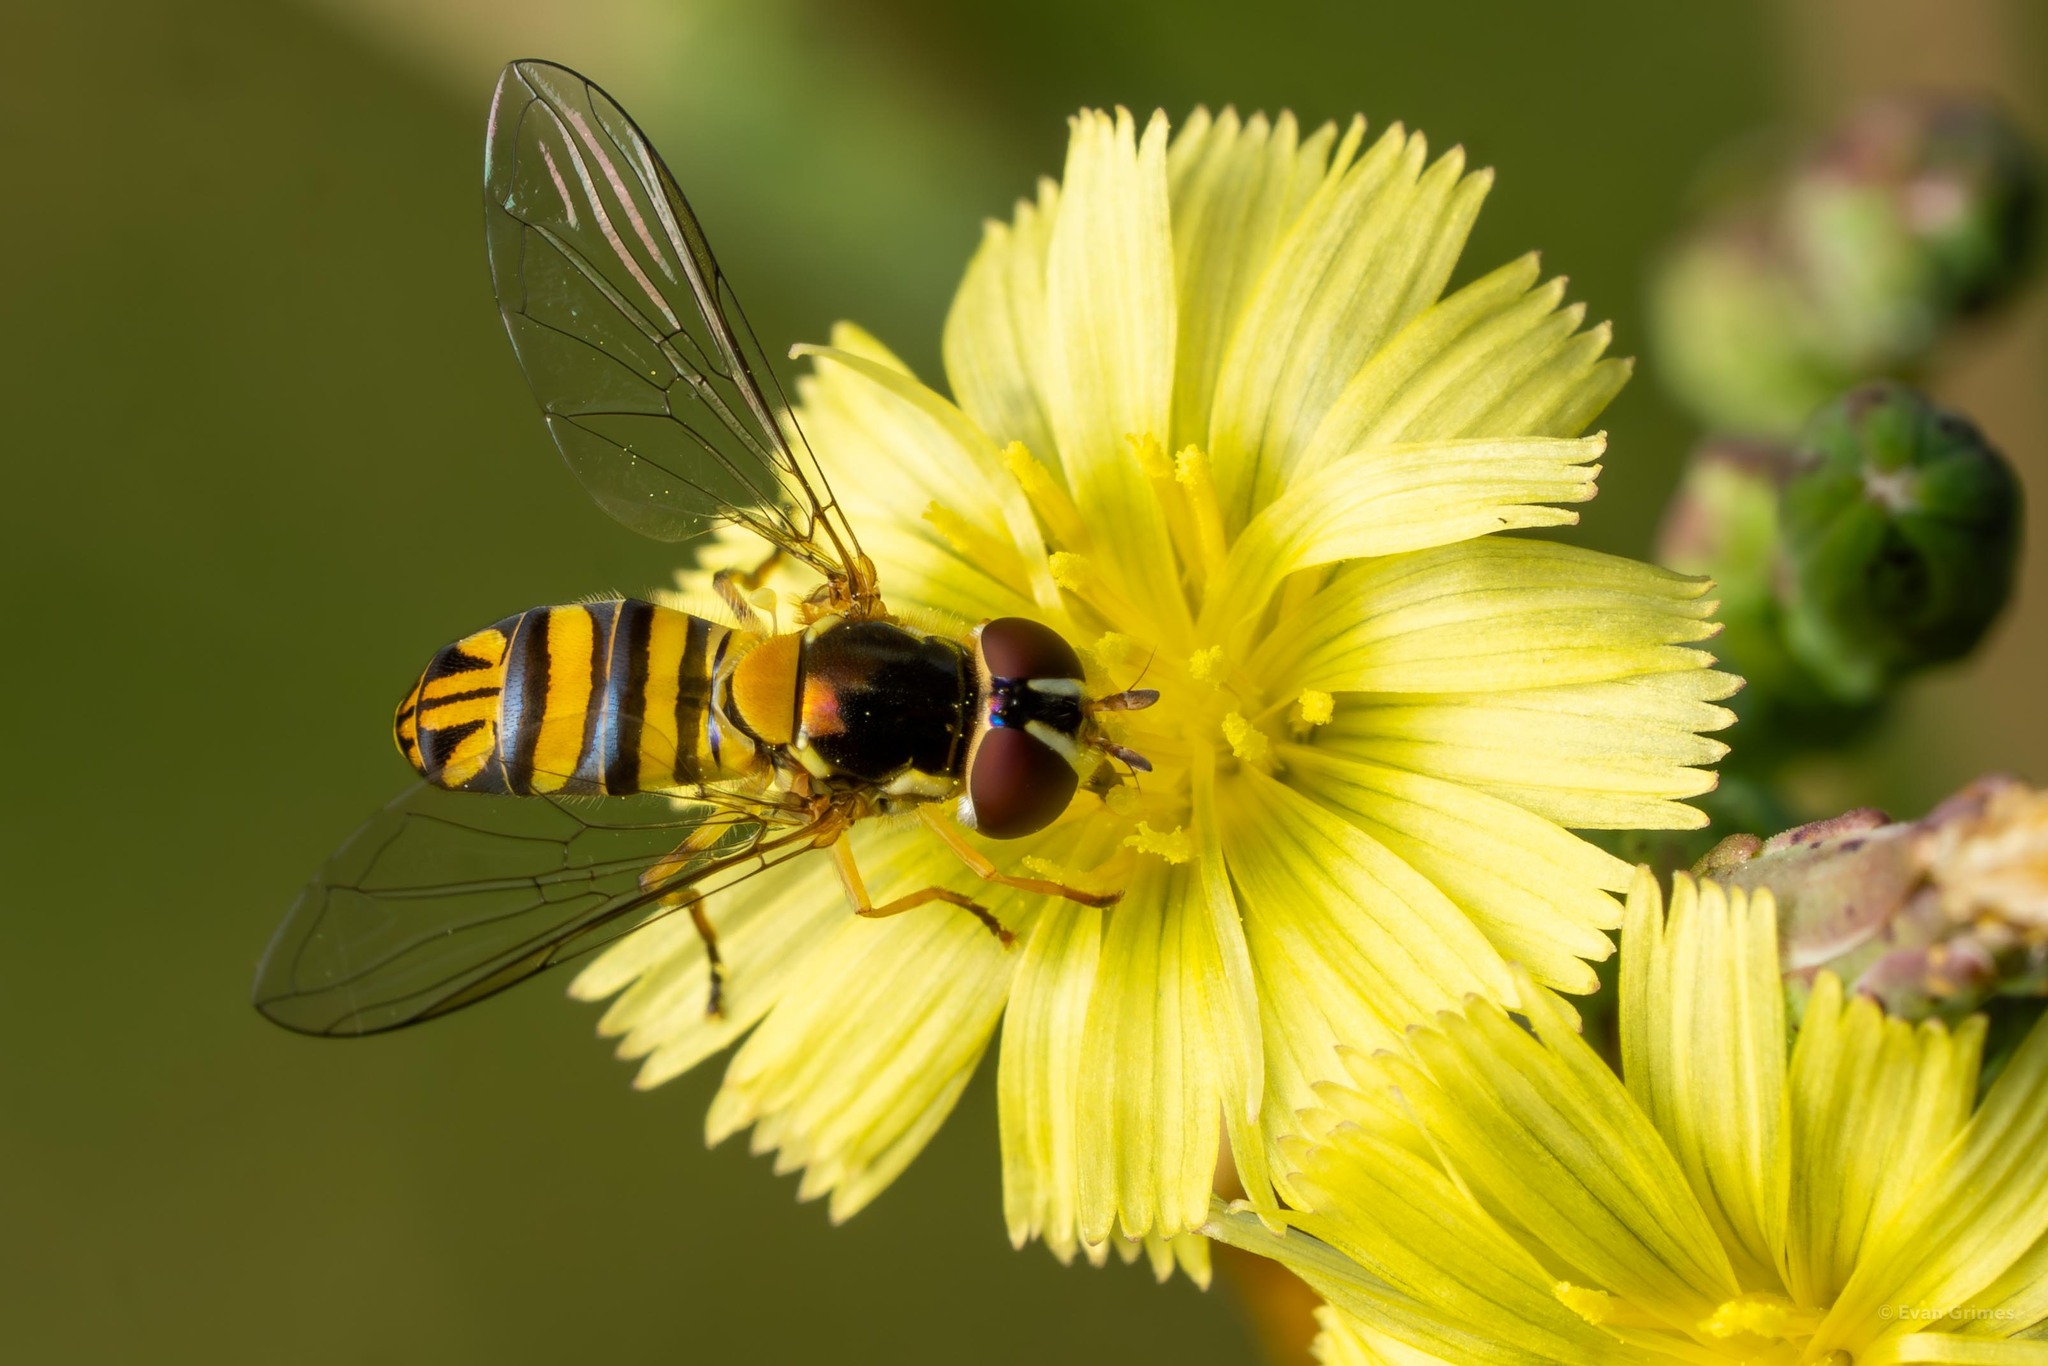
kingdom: Animalia
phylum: Arthropoda
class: Insecta
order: Diptera
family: Syrphidae
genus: Allograpta
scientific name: Allograpta obliqua
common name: Common oblique syrphid
